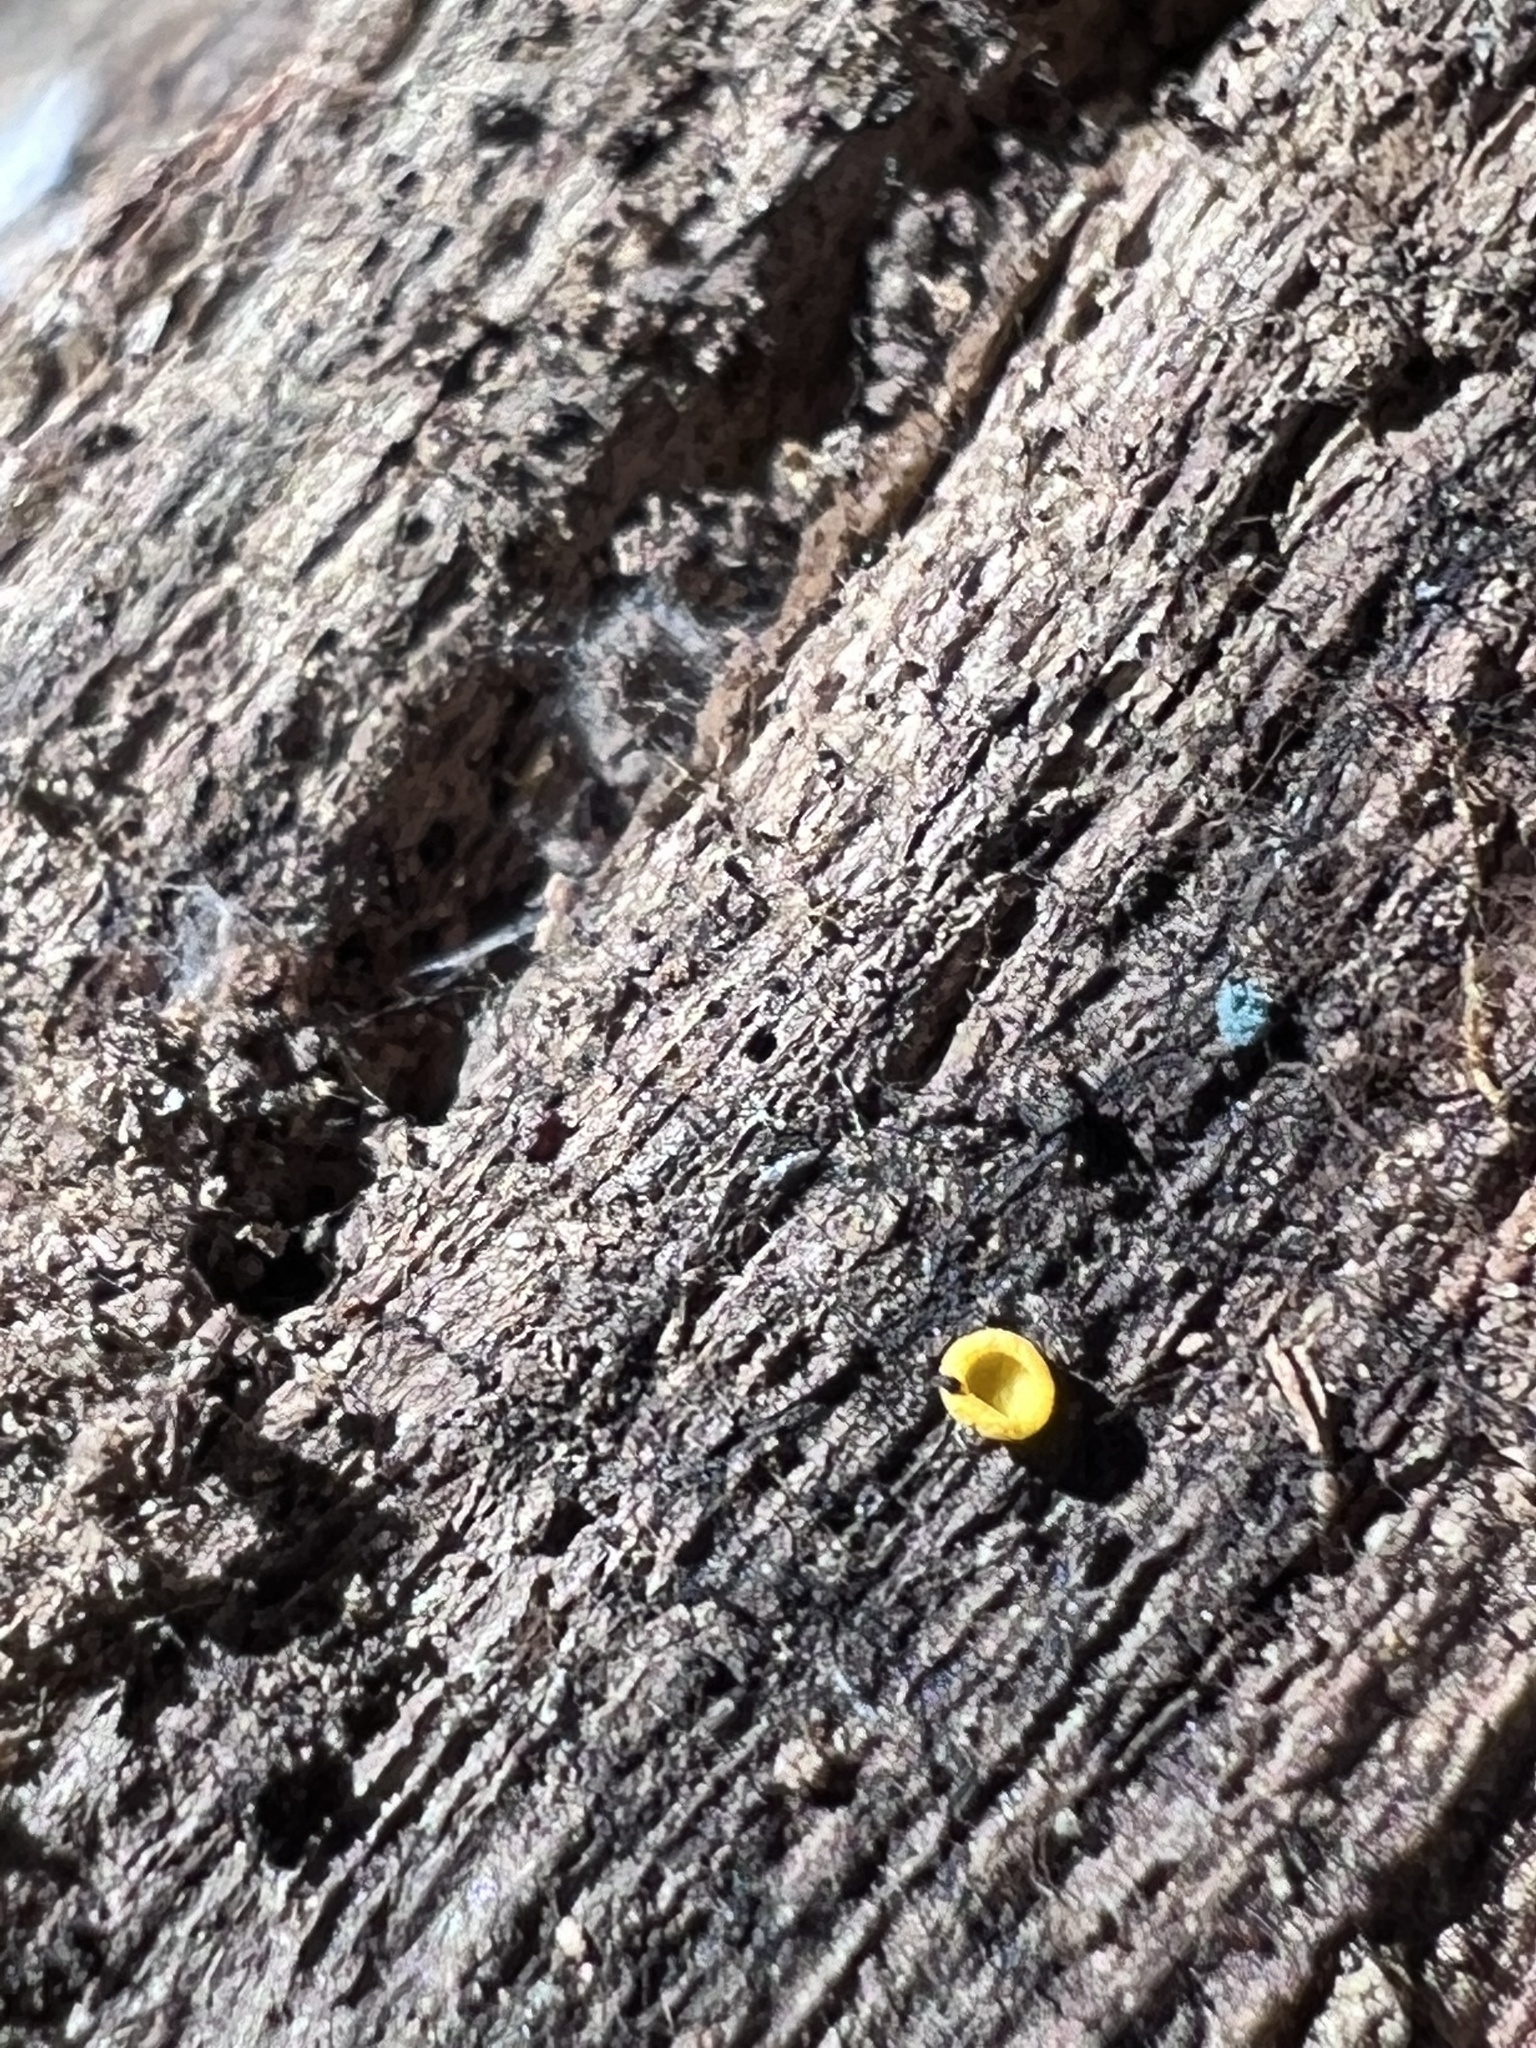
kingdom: Fungi
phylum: Ascomycota
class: Leotiomycetes
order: Helotiales
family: Chlorospleniaceae
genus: Chlorosplenium
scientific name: Chlorosplenium chlora
